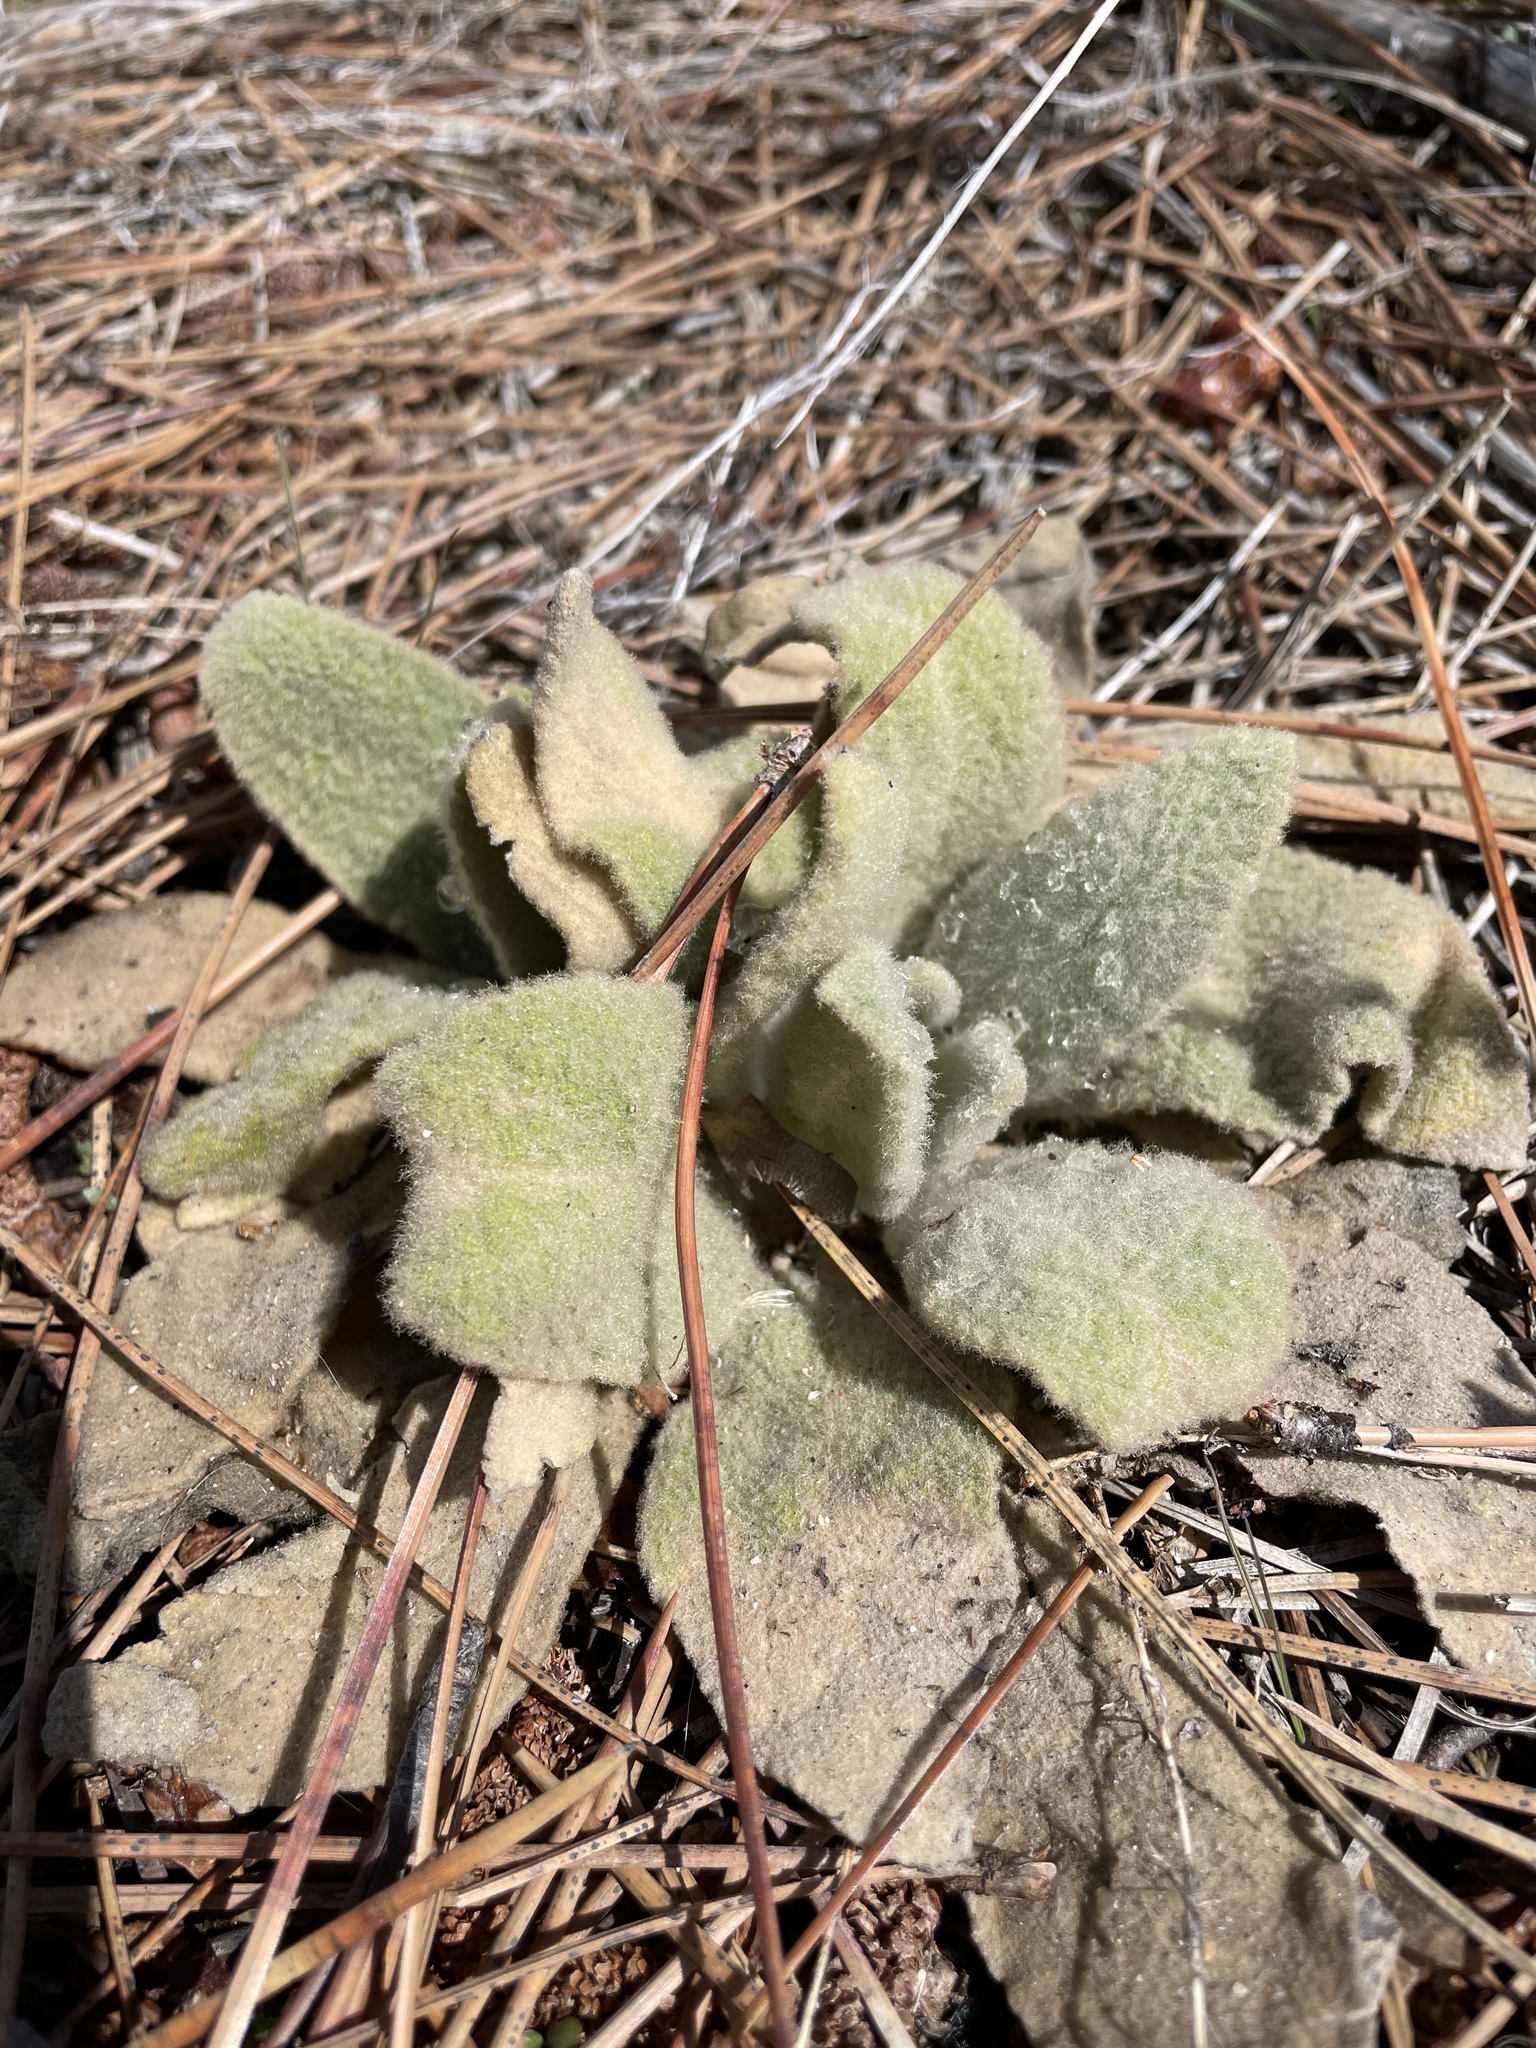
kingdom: Plantae
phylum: Tracheophyta
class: Magnoliopsida
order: Lamiales
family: Scrophulariaceae
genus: Verbascum
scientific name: Verbascum thapsus
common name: Common mullein
